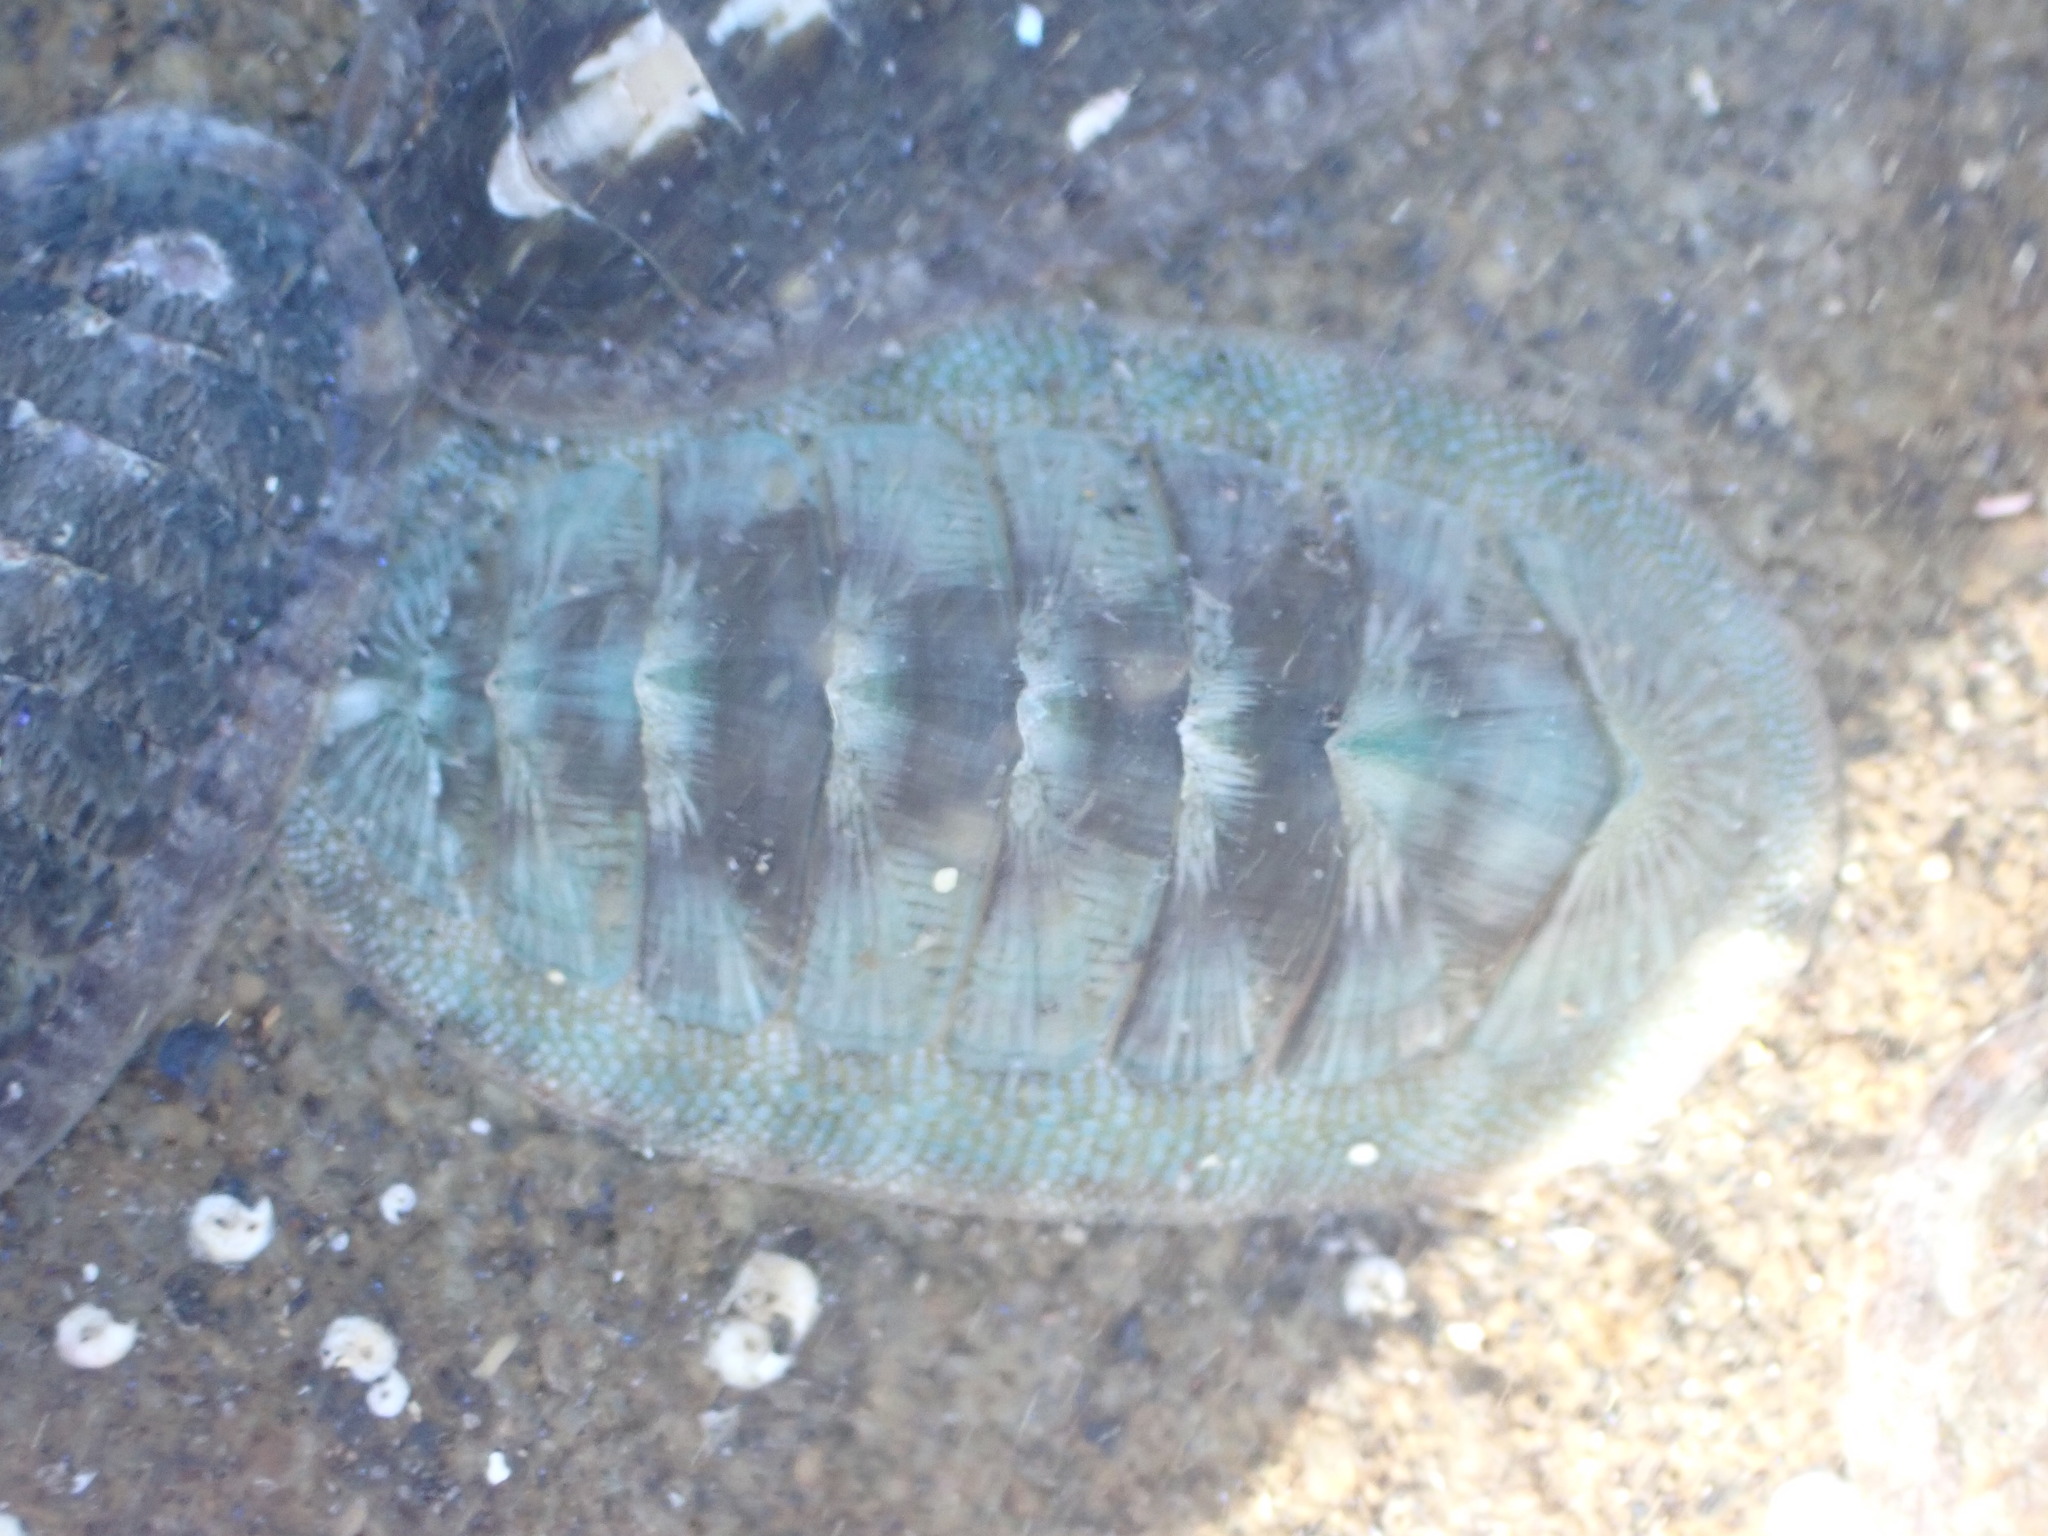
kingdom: Animalia
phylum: Mollusca
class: Polyplacophora
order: Chitonida
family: Chitonidae
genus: Rhyssoplax
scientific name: Rhyssoplax aerea
